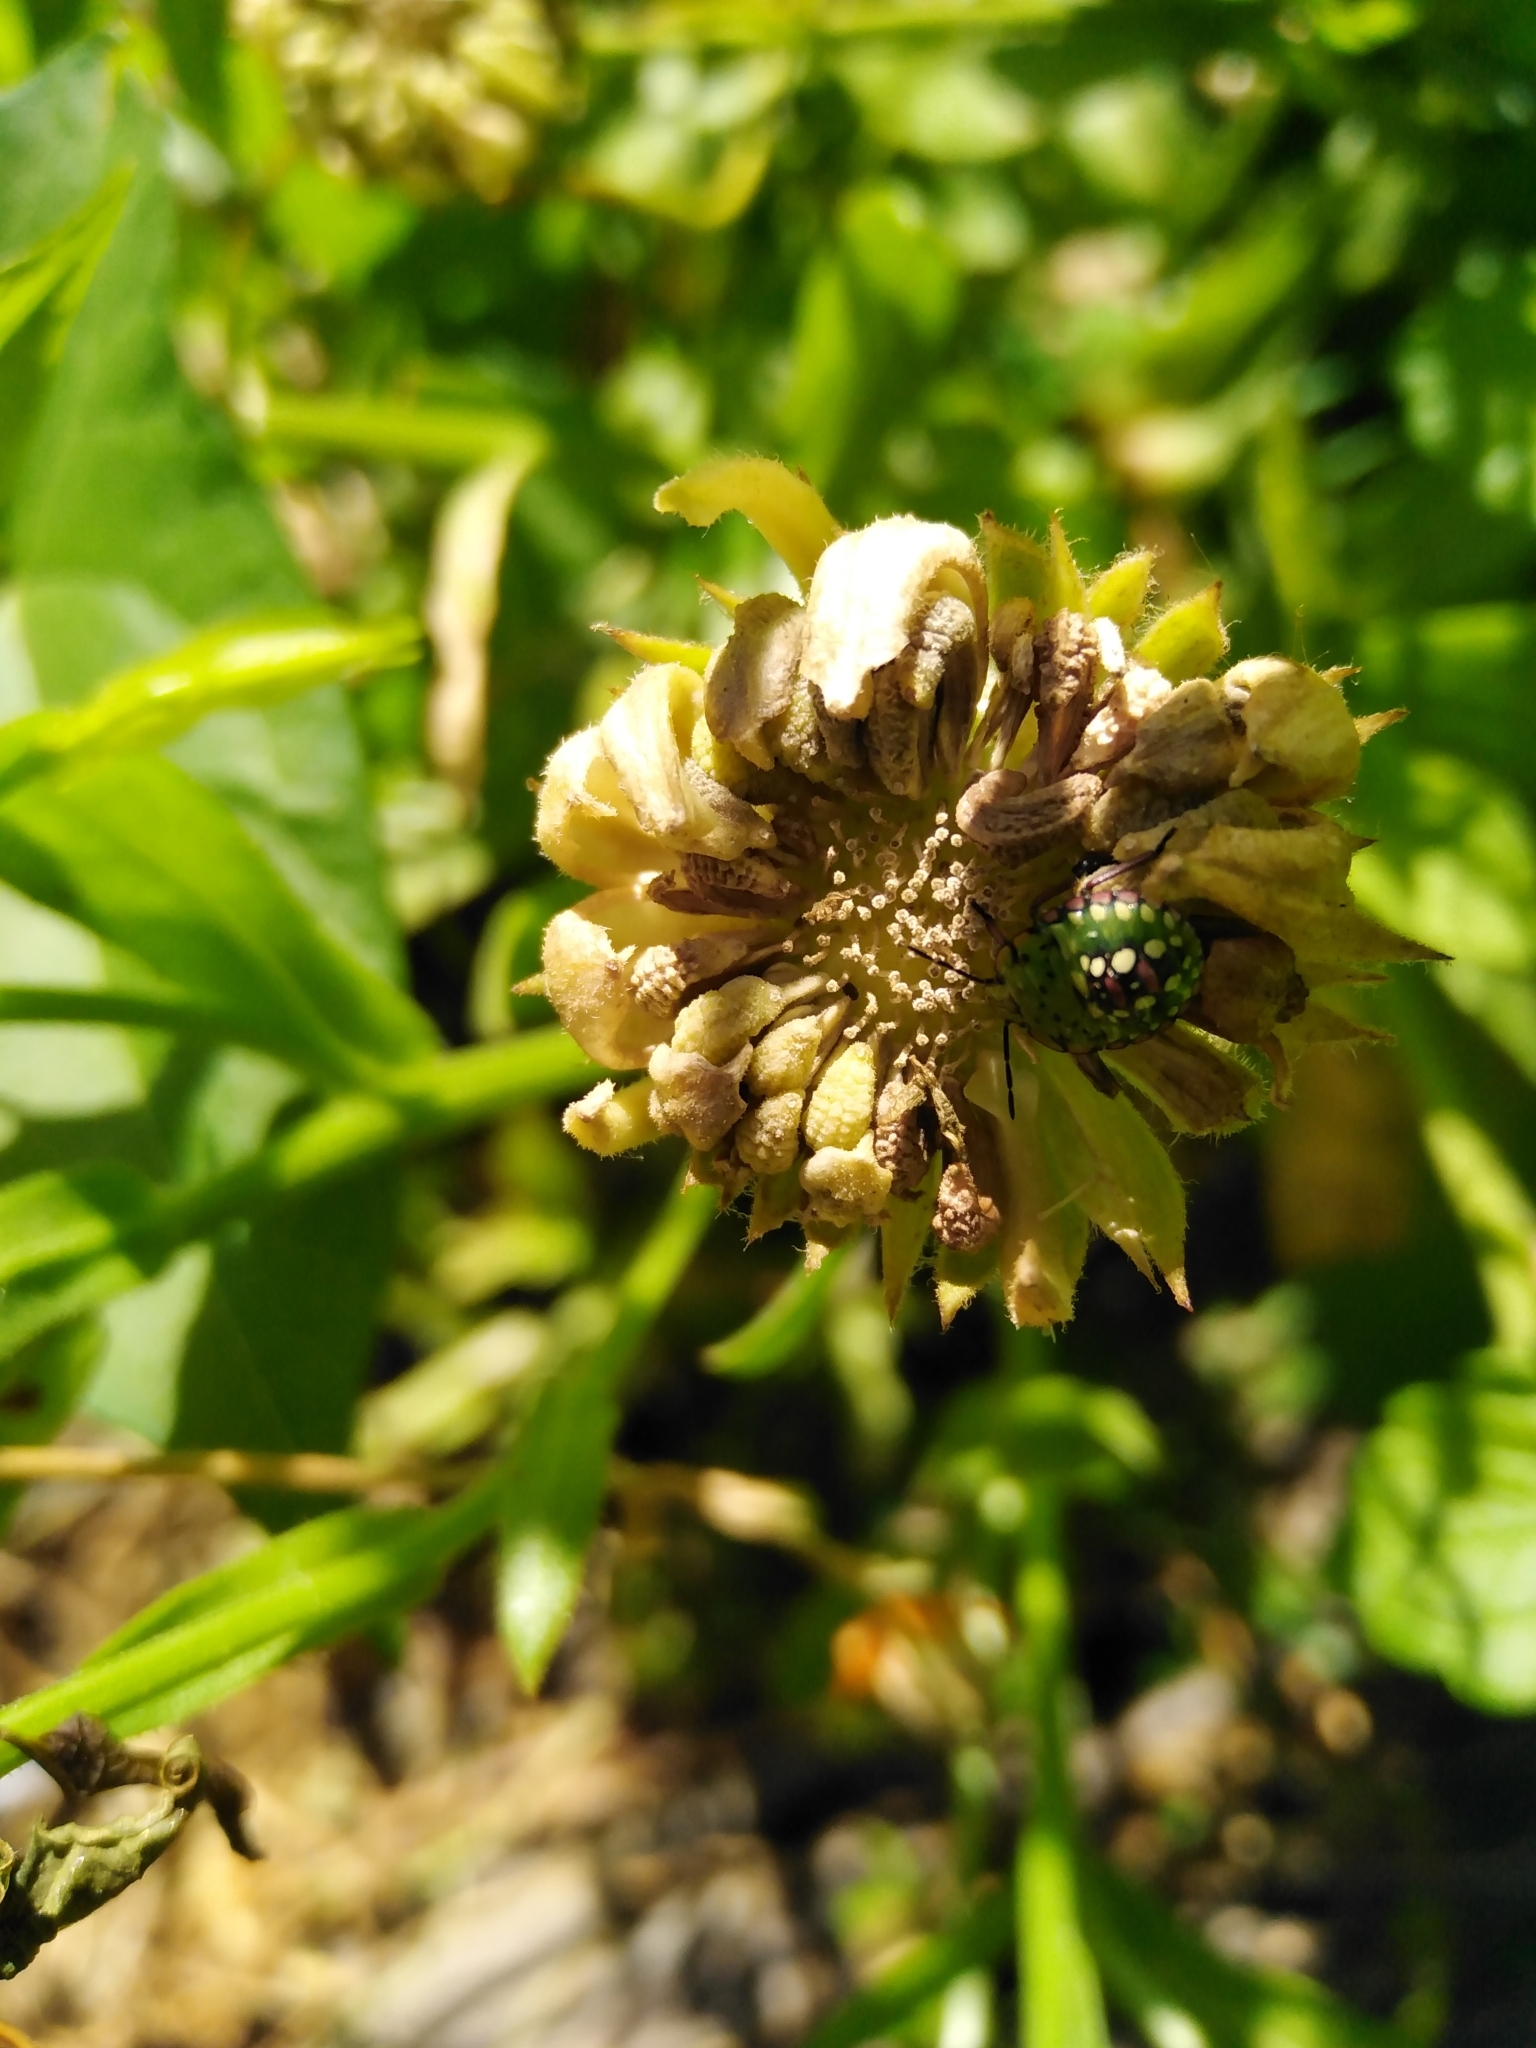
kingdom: Animalia
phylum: Arthropoda
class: Insecta
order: Hemiptera
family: Pentatomidae
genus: Nezara
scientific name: Nezara viridula
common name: Southern green stink bug
